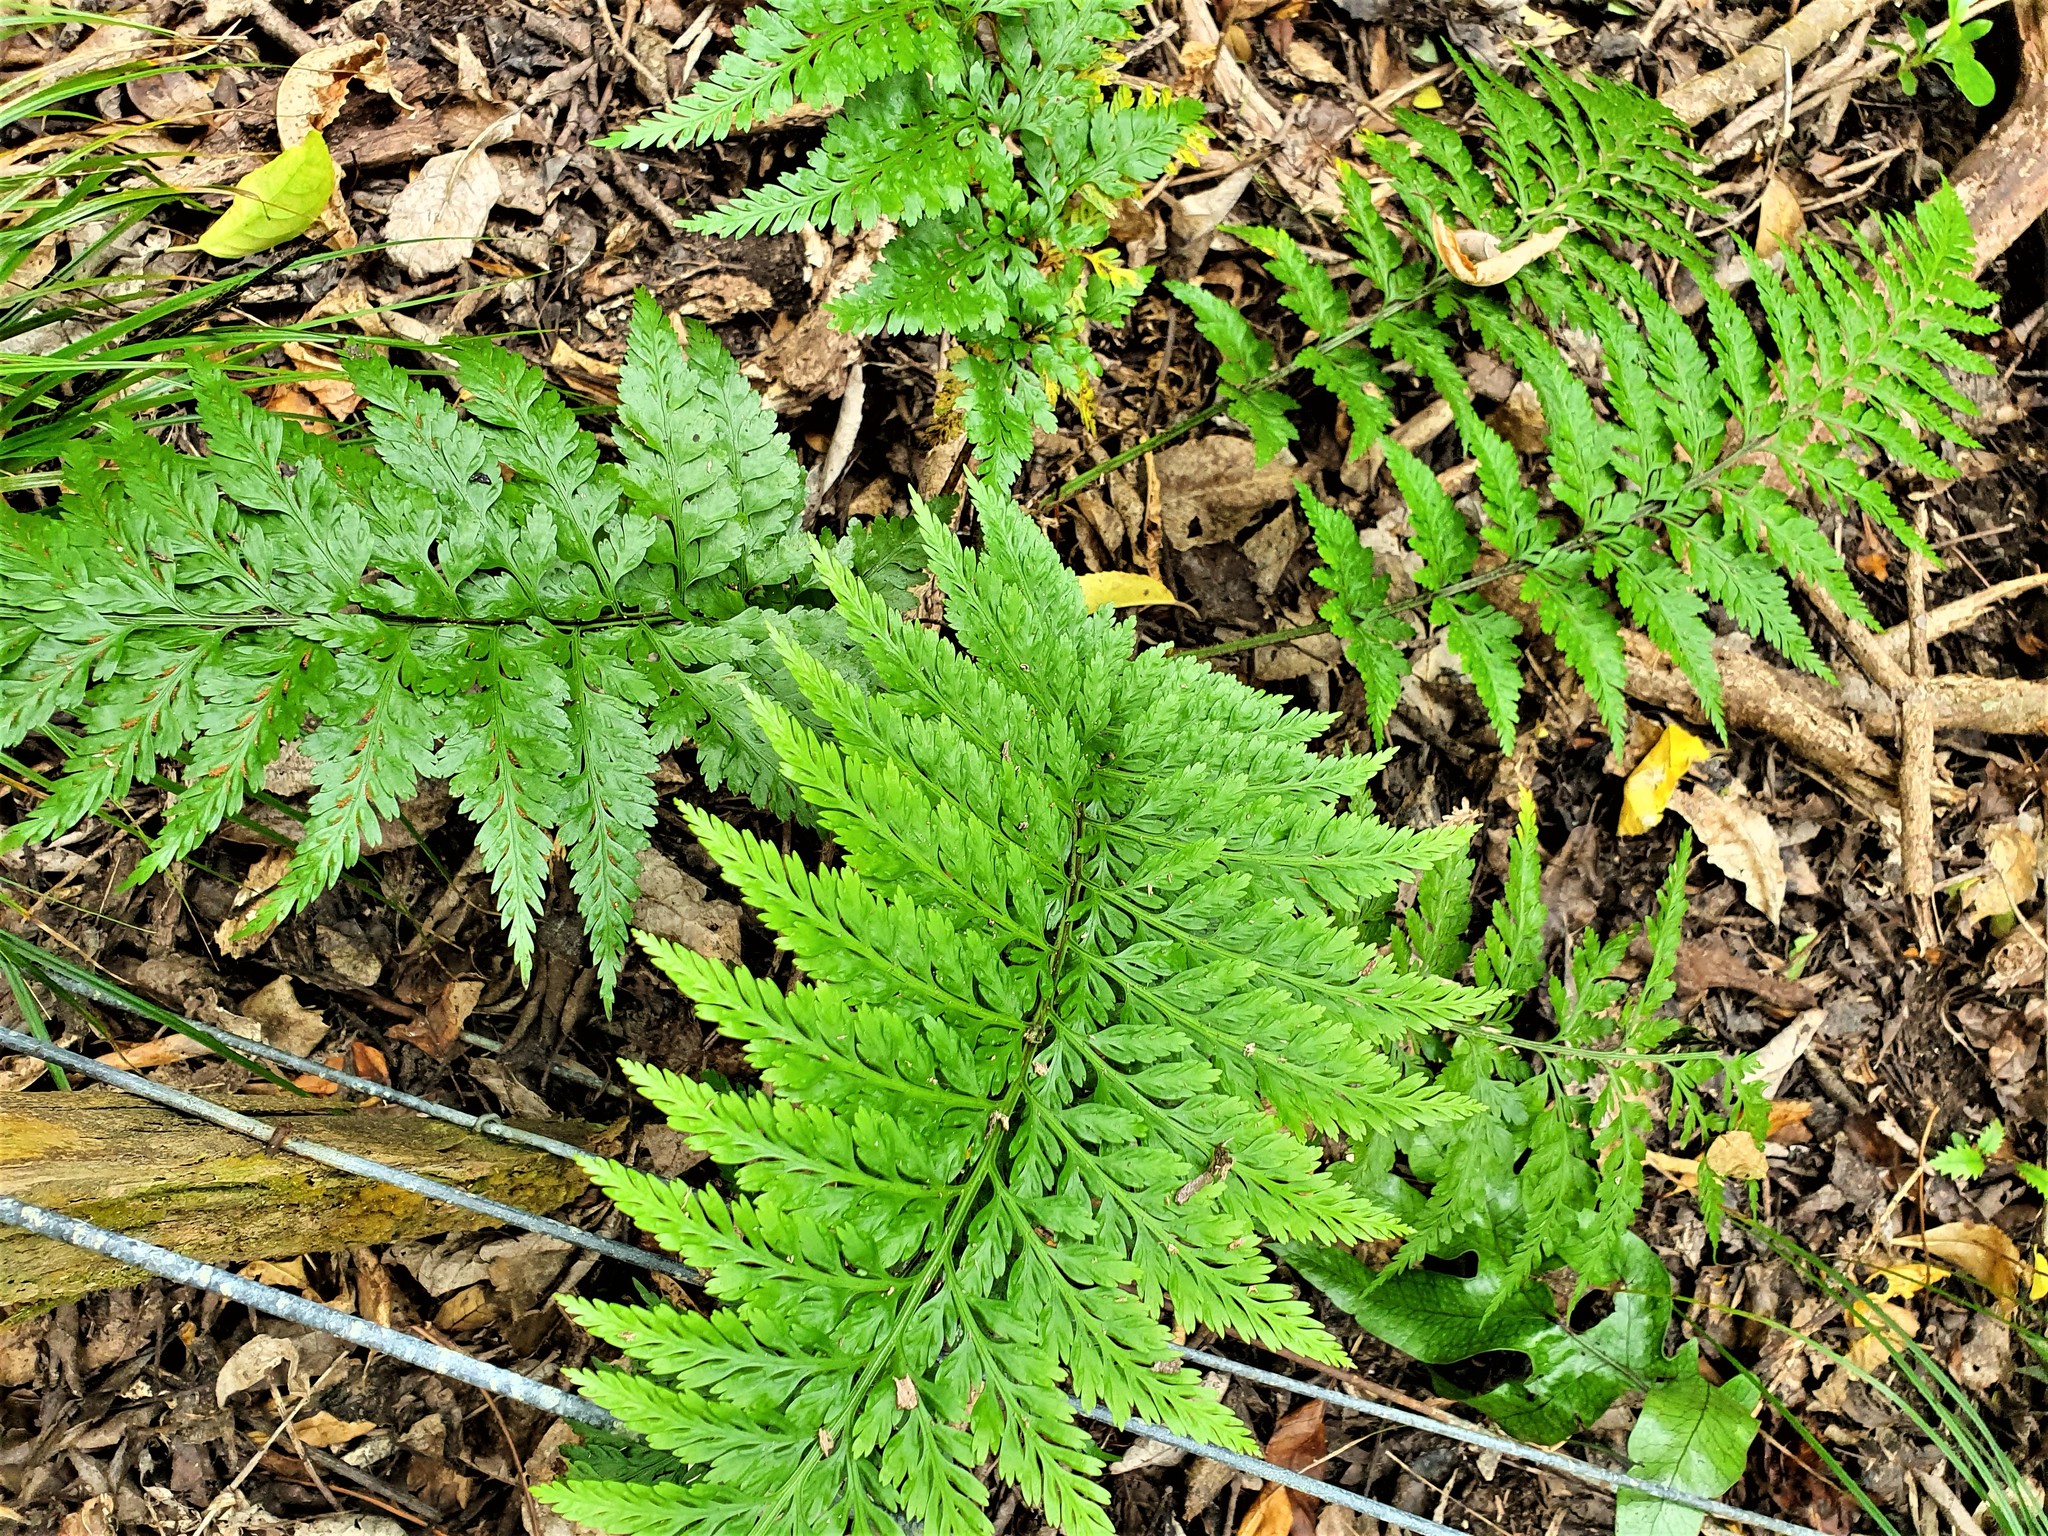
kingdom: Plantae
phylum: Tracheophyta
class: Polypodiopsida
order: Polypodiales
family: Aspleniaceae
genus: Asplenium
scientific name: Asplenium
